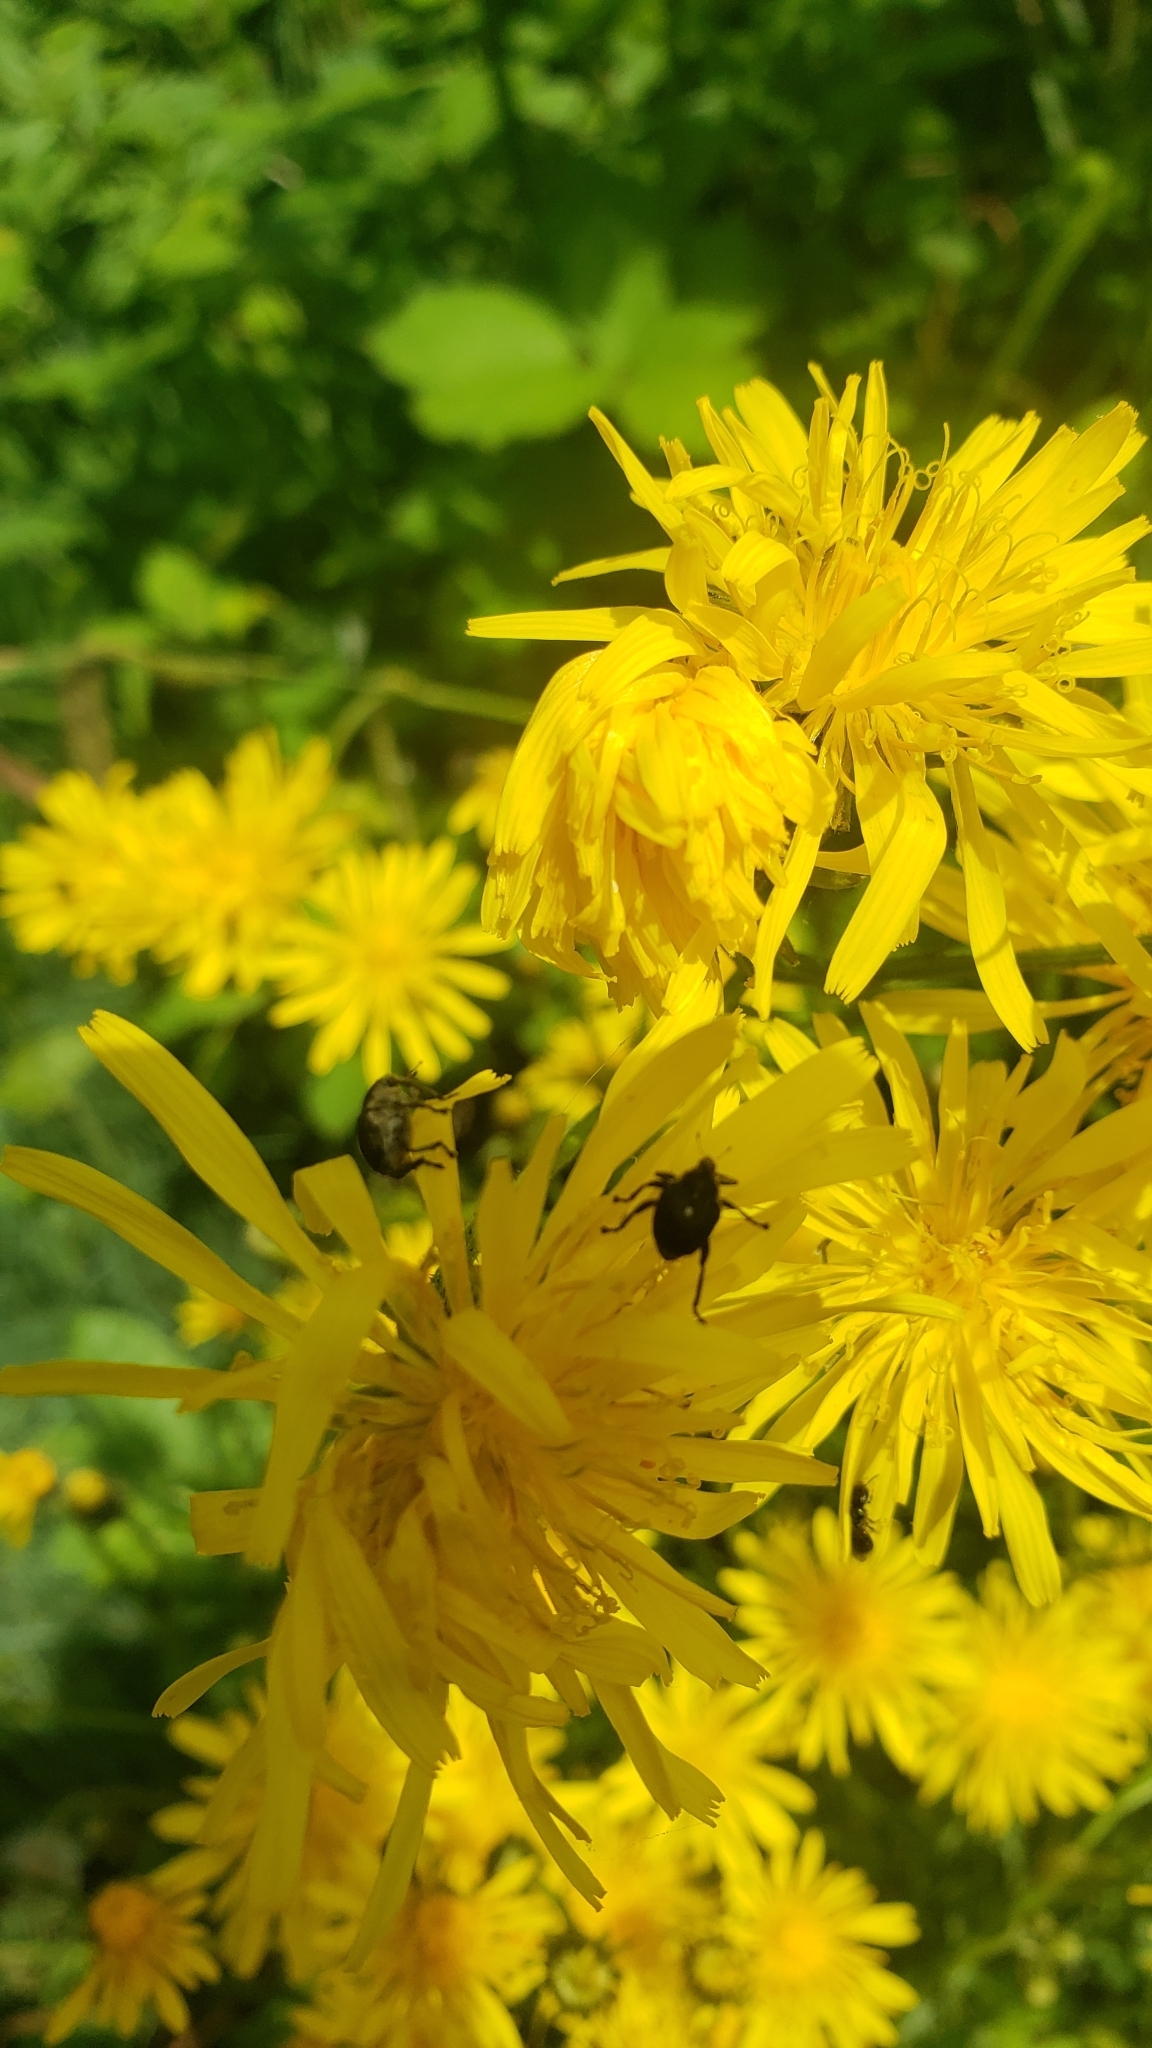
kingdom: Animalia
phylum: Arthropoda
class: Insecta
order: Coleoptera
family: Curculionidae
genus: Mononychus
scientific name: Mononychus punctumalbum
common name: Iris weevil
